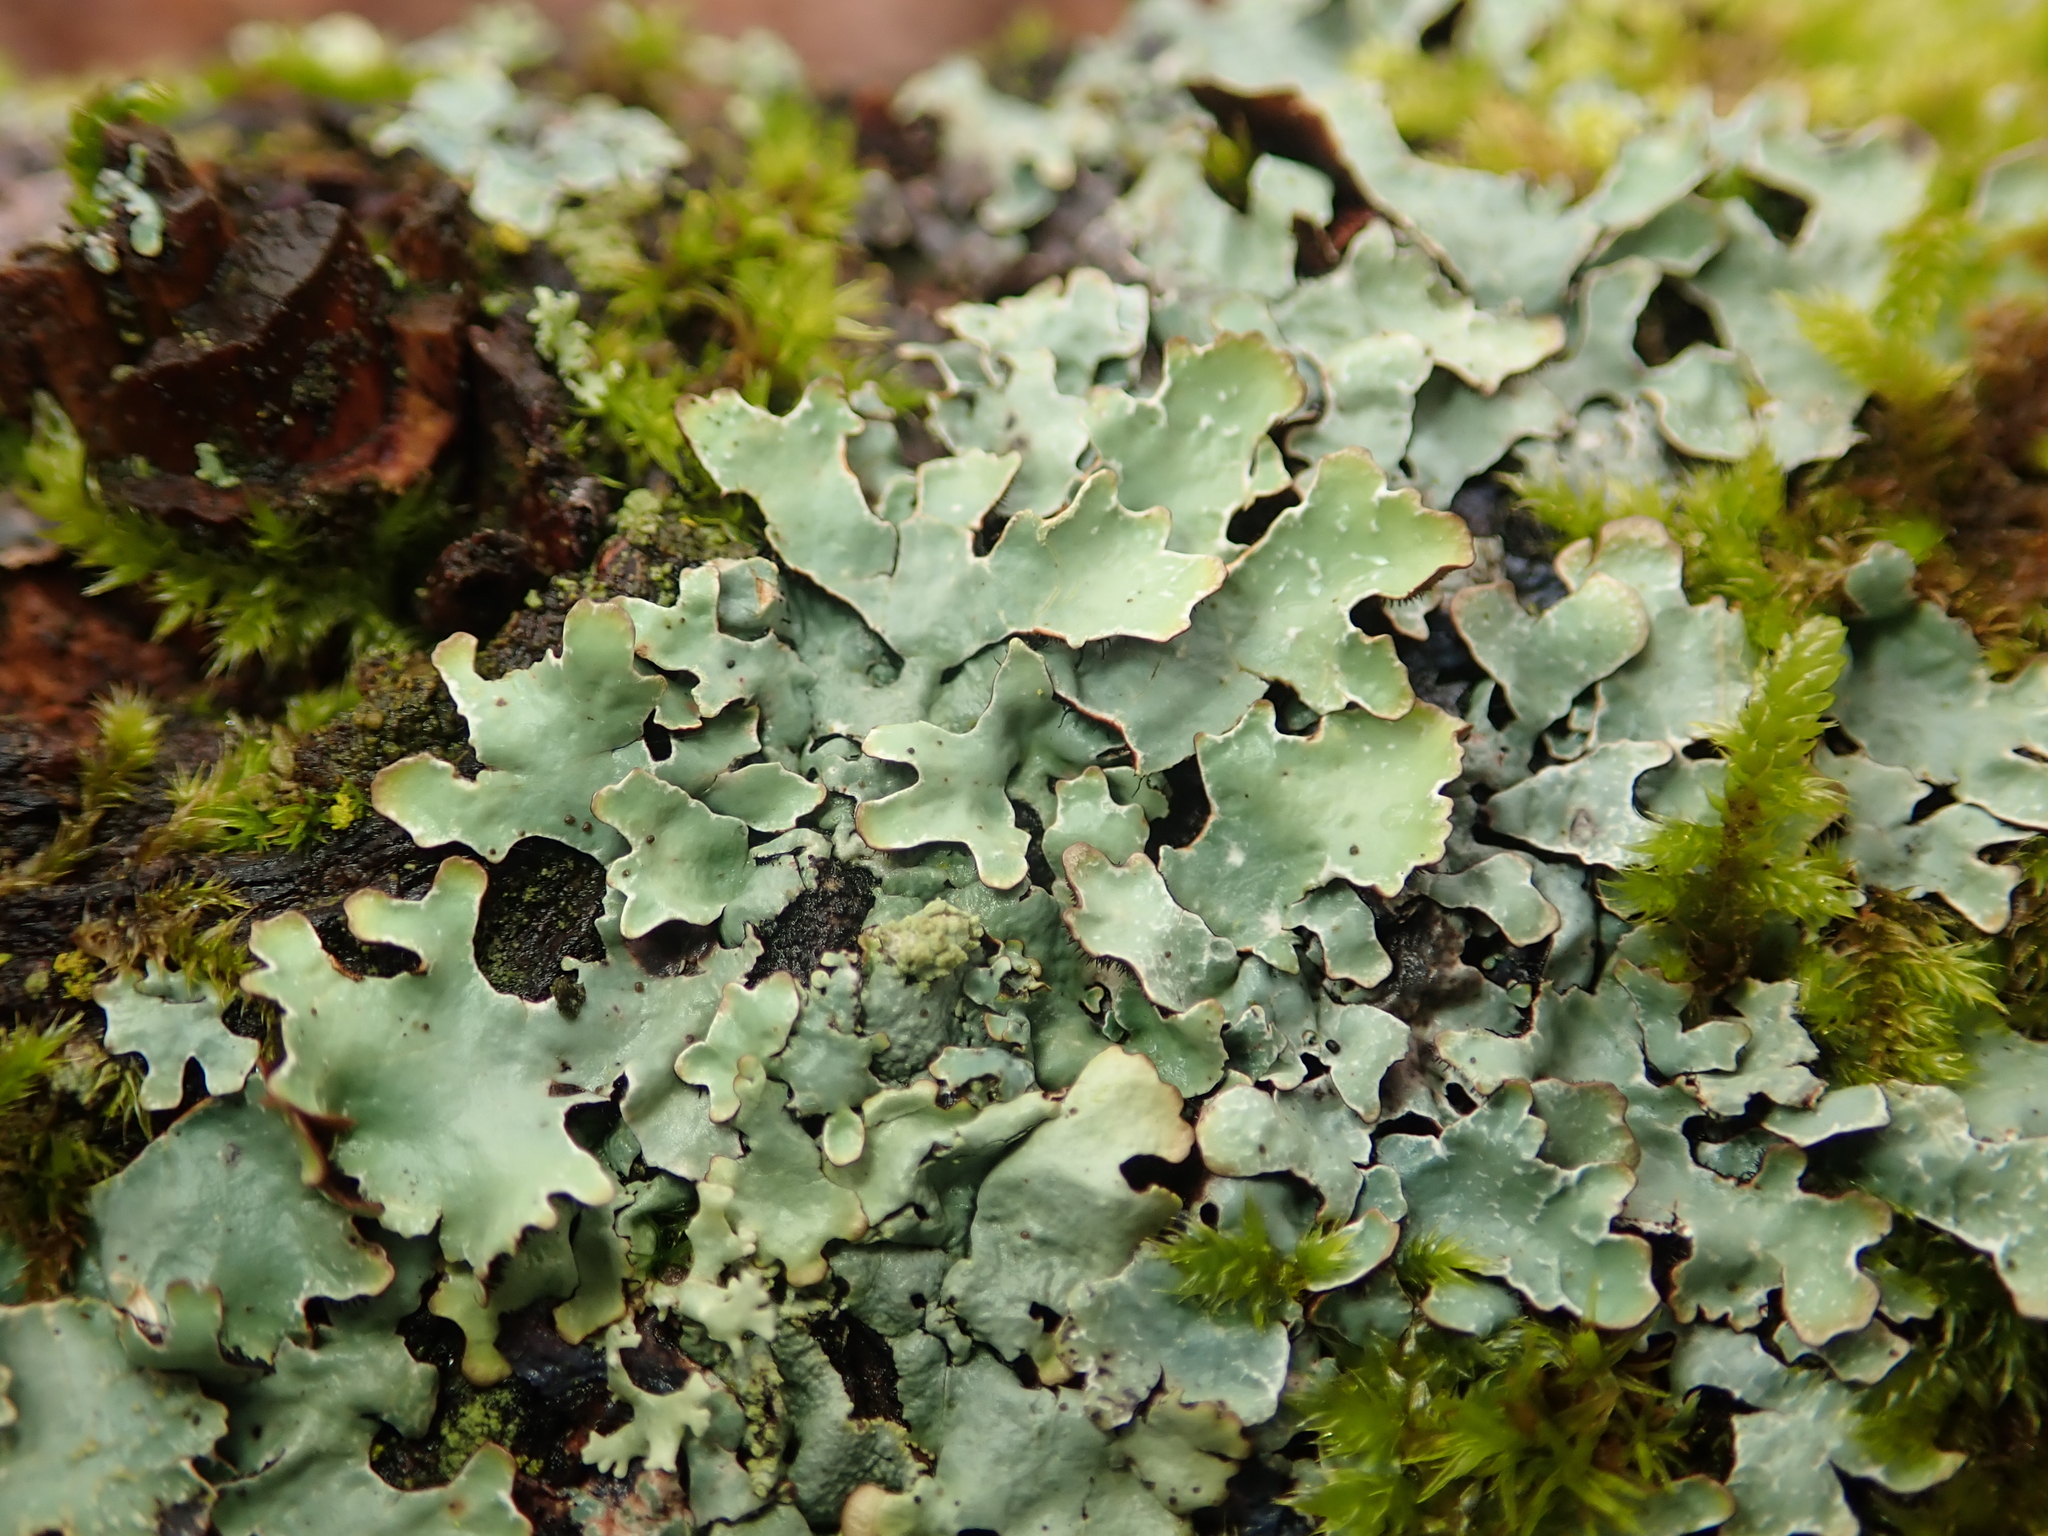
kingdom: Fungi
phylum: Ascomycota
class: Lecanoromycetes
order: Lecanorales
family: Parmeliaceae
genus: Parmelia
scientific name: Parmelia sulcata
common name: Netted shield lichen
